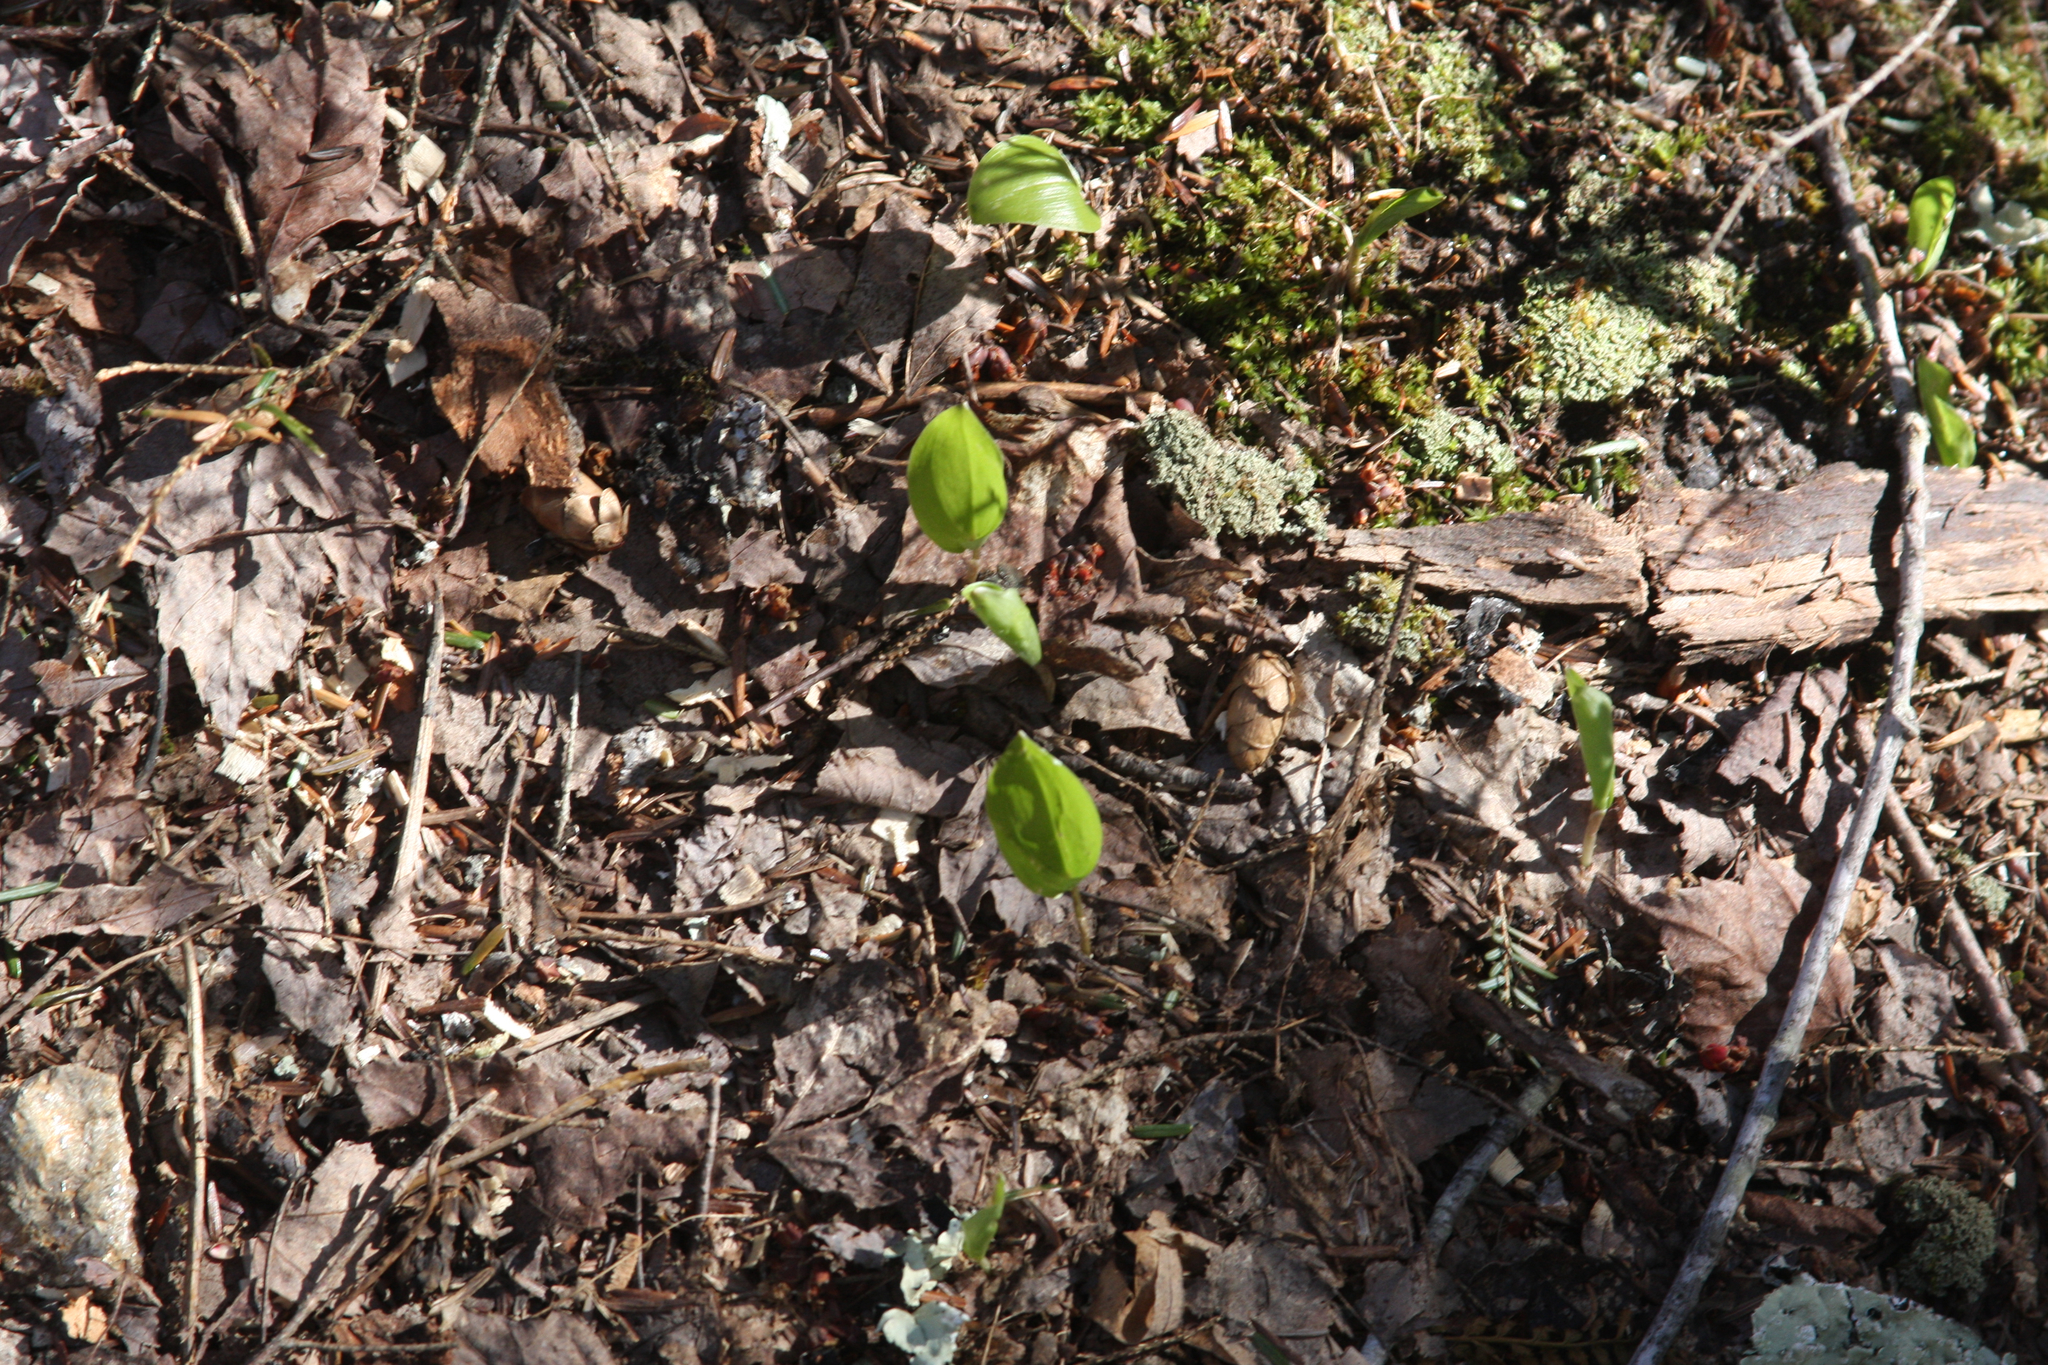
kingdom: Plantae
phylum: Tracheophyta
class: Liliopsida
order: Asparagales
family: Asparagaceae
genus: Maianthemum
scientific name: Maianthemum canadense
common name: False lily-of-the-valley
